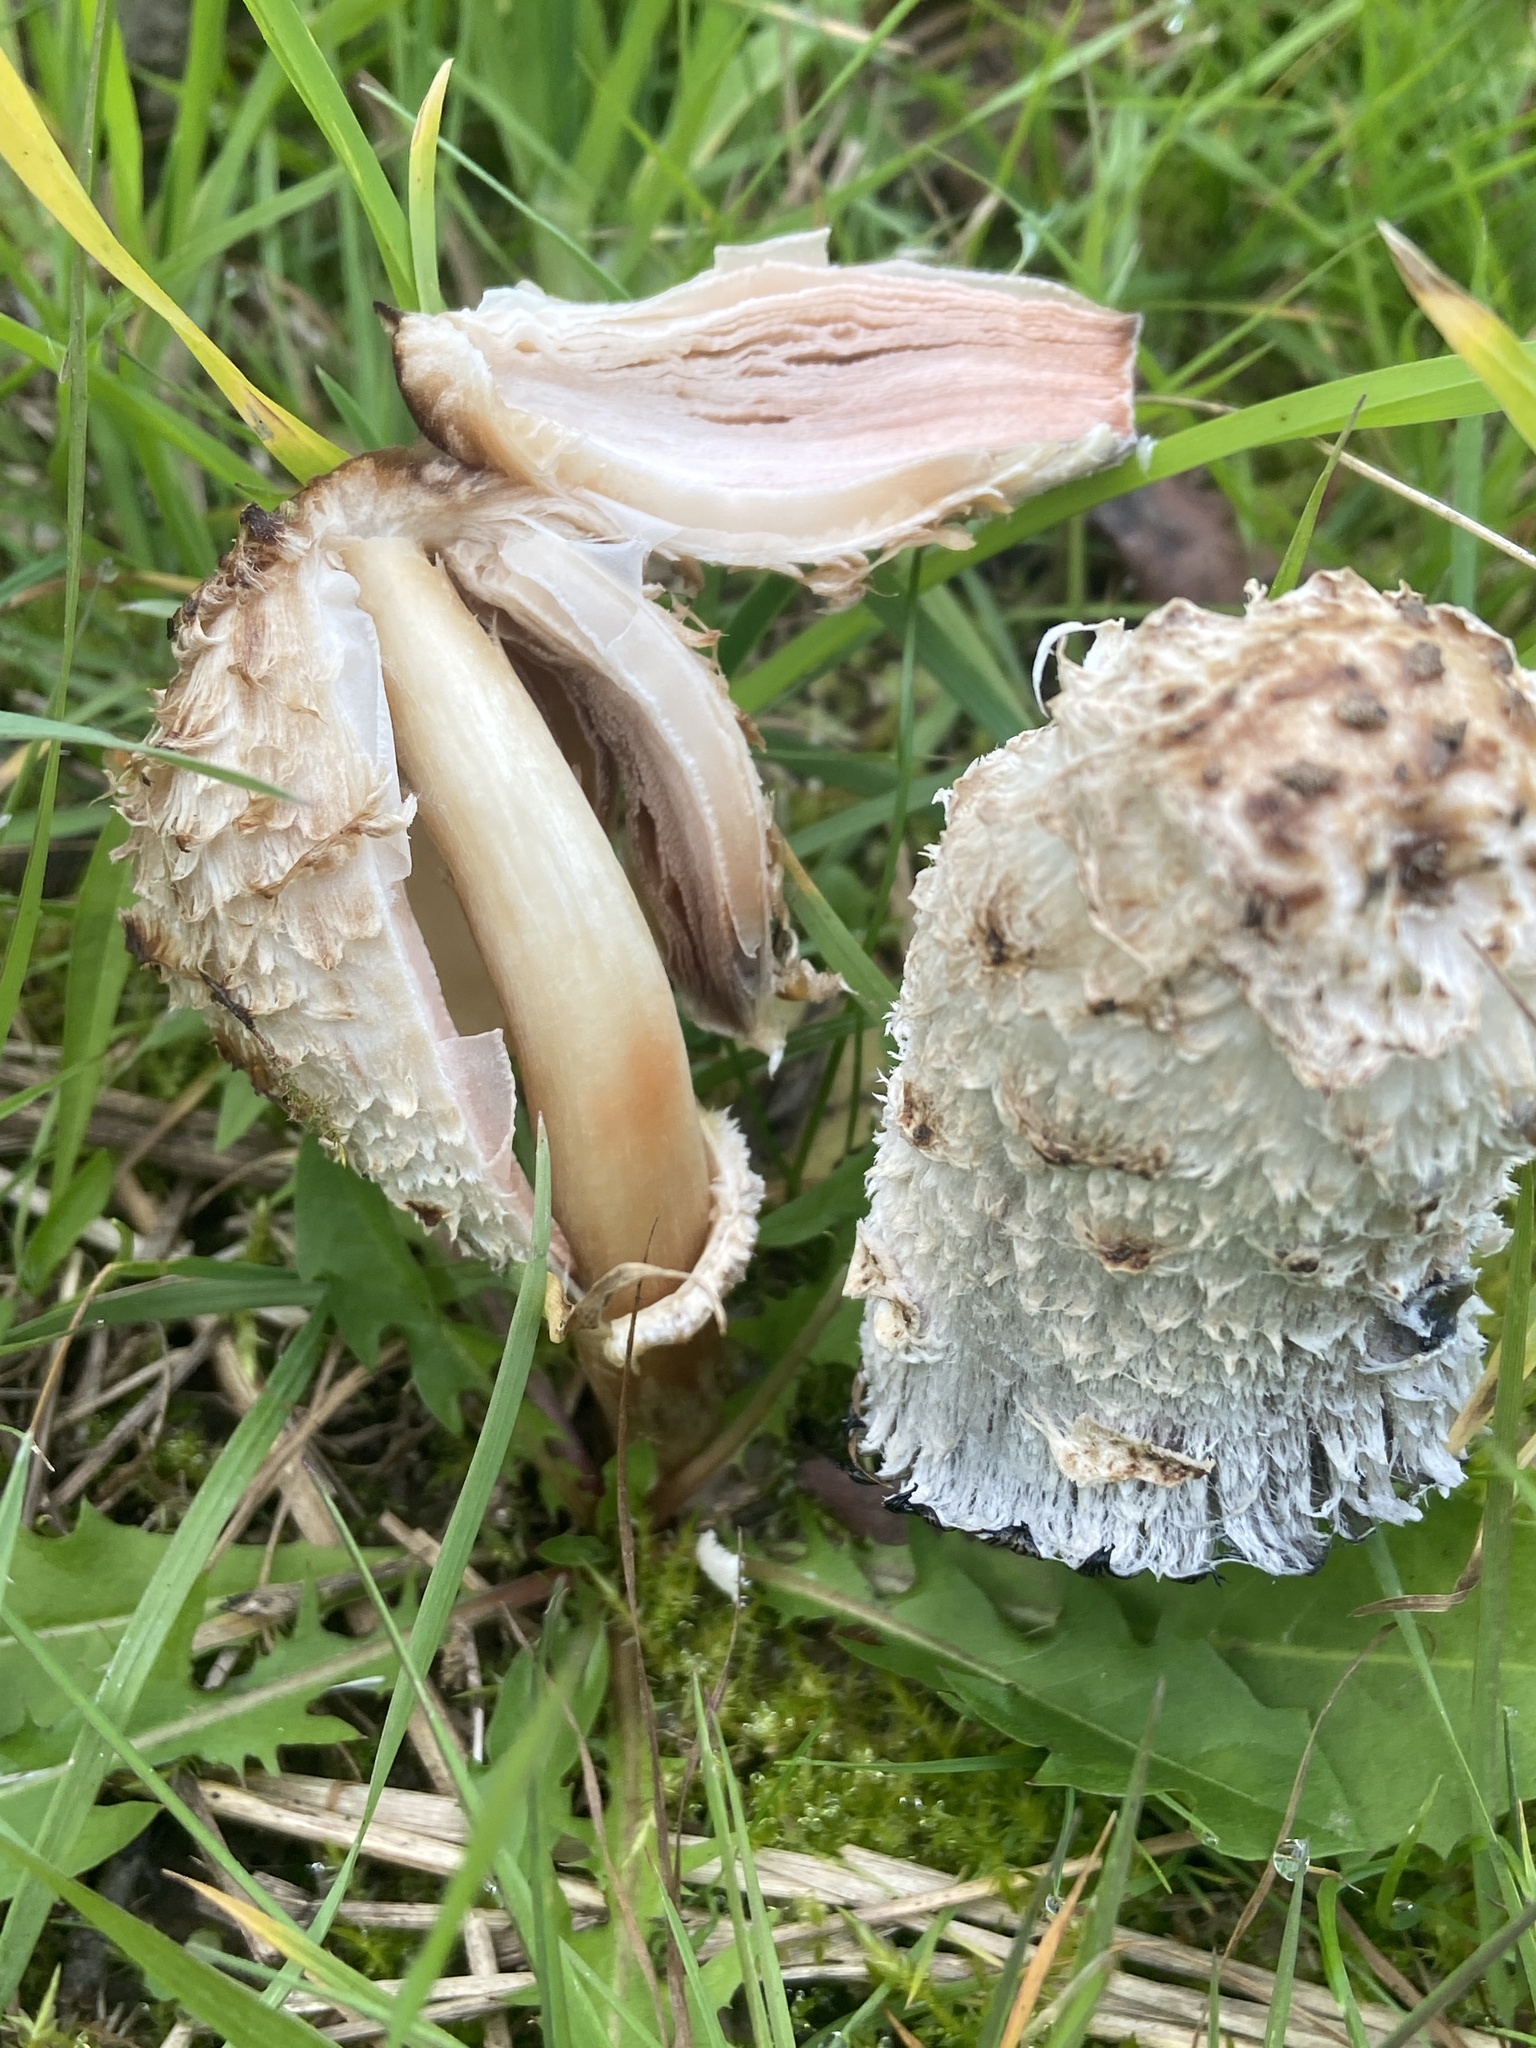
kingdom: Fungi
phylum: Basidiomycota
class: Agaricomycetes
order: Agaricales
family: Agaricaceae
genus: Coprinus
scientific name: Coprinus comatus
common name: Lawyer's wig
